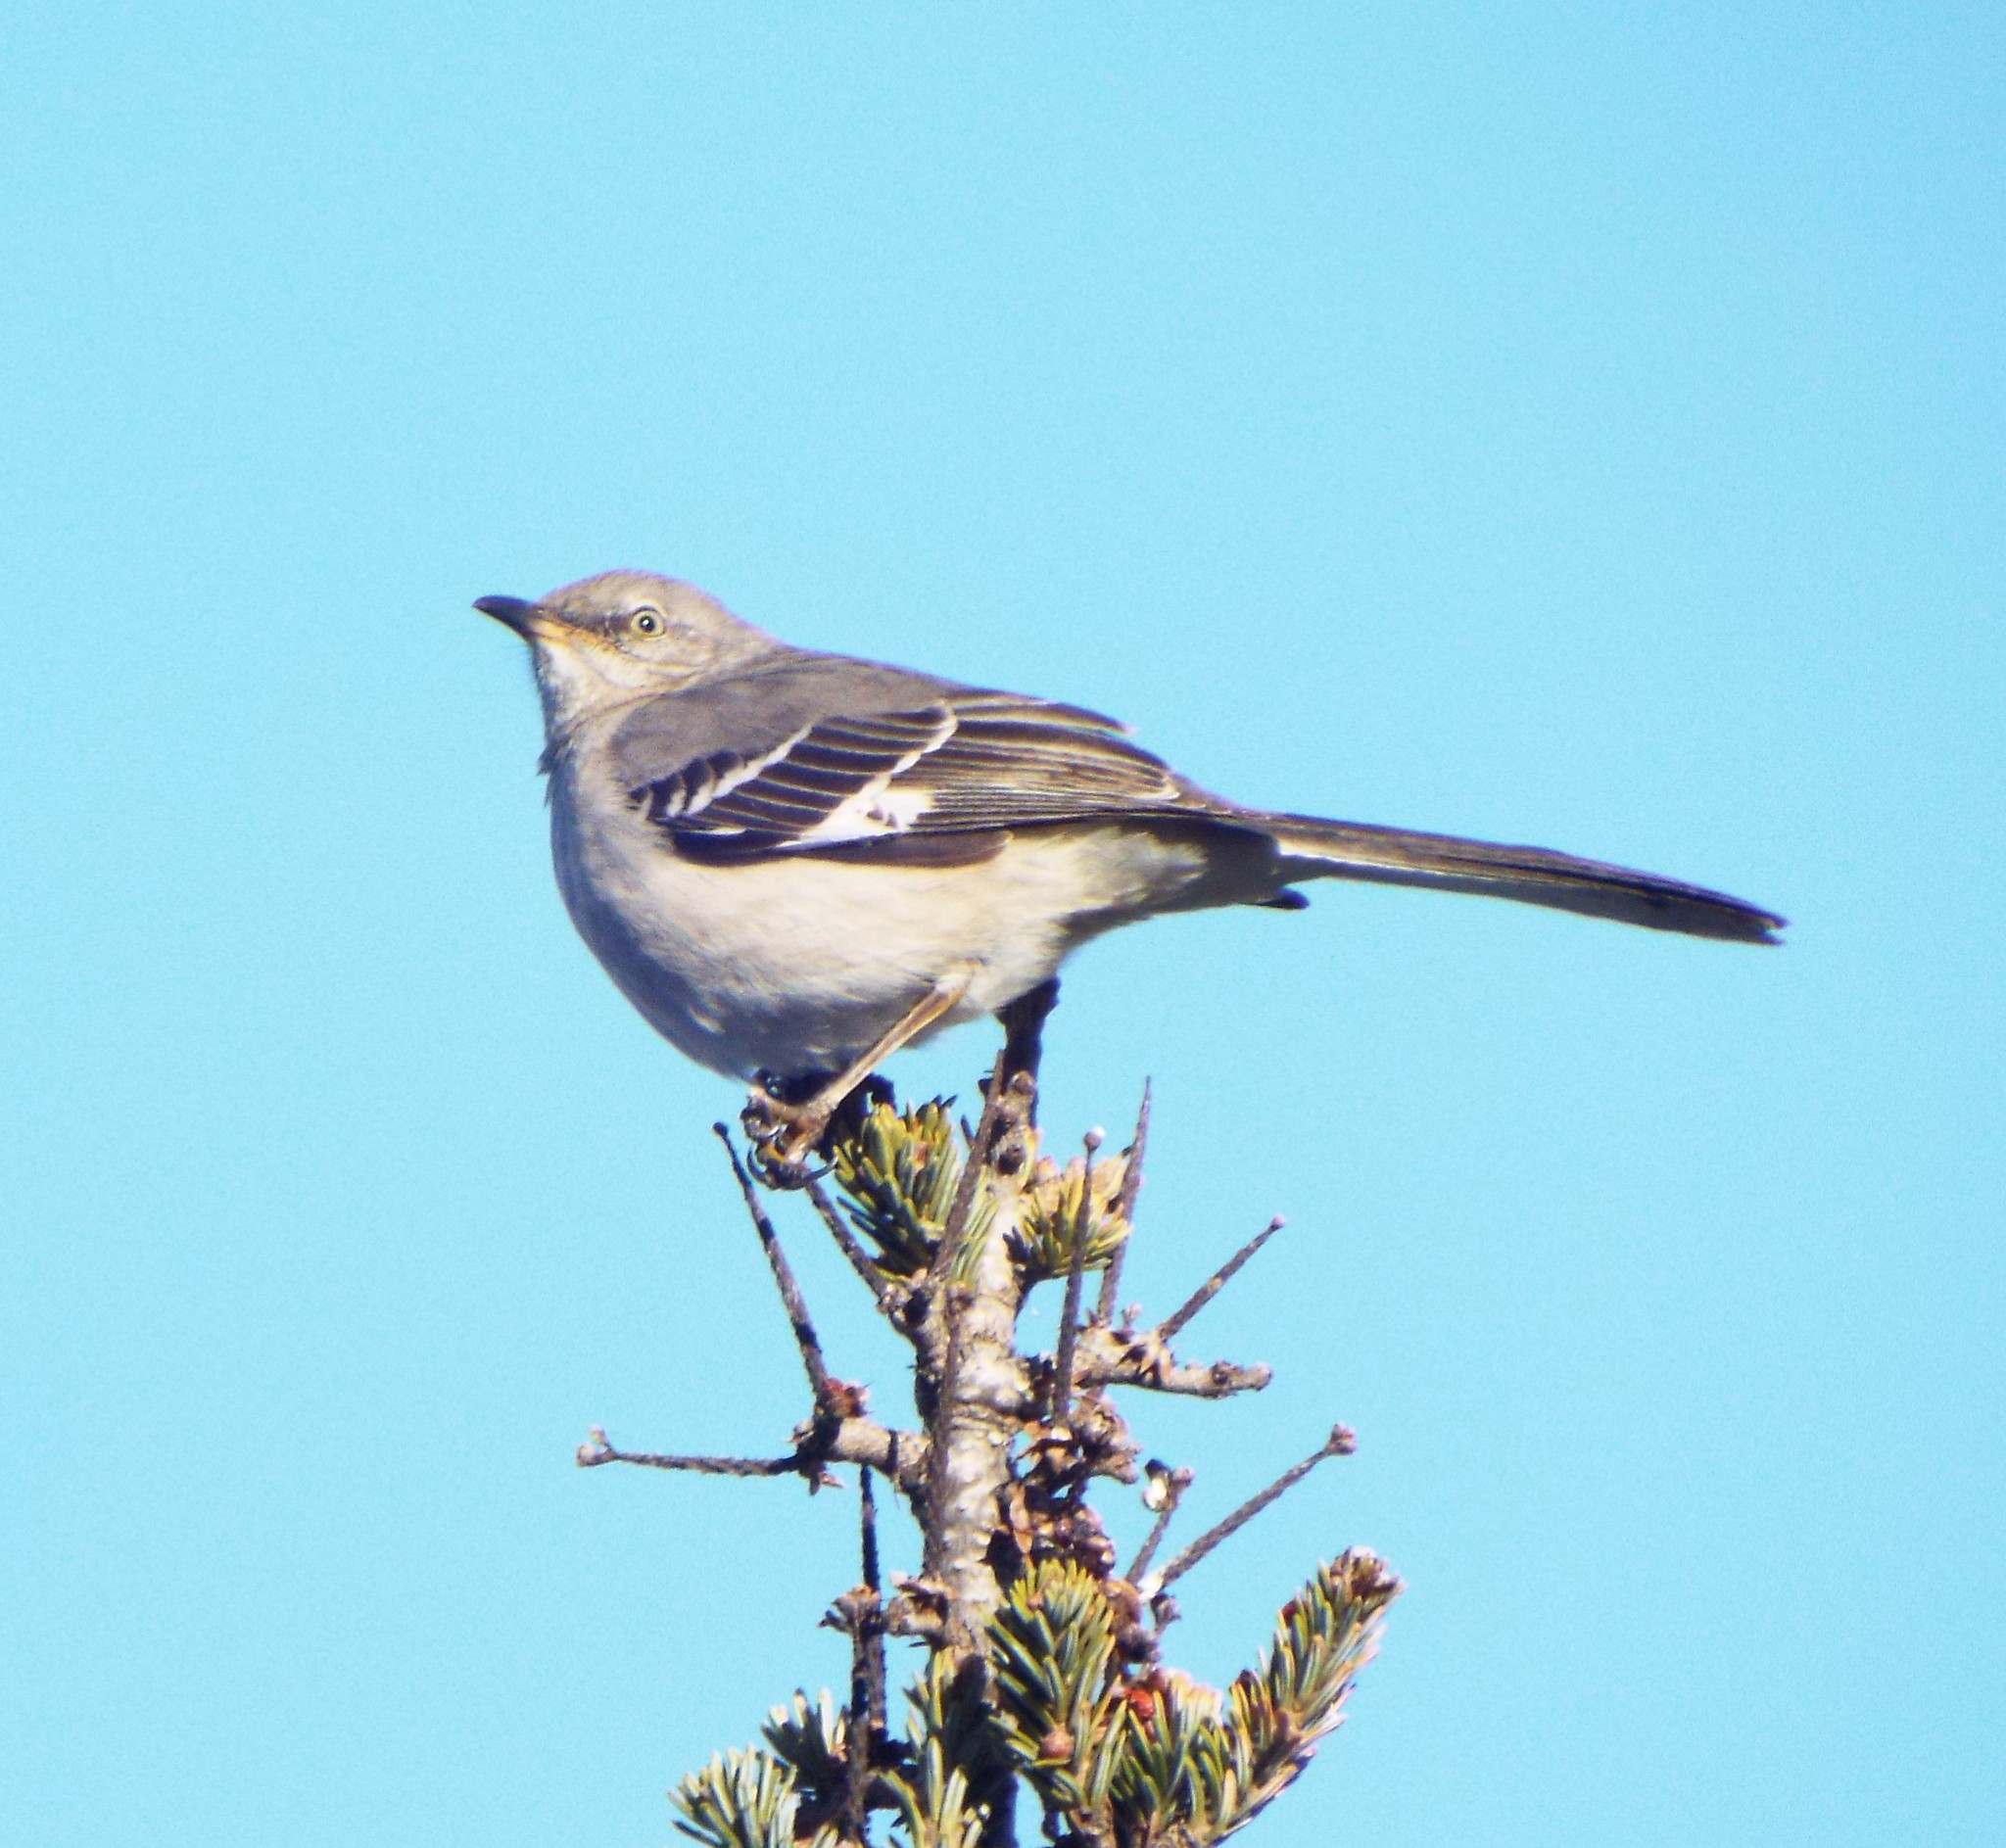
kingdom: Animalia
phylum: Chordata
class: Aves
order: Passeriformes
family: Mimidae
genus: Mimus
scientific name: Mimus polyglottos
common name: Northern mockingbird
